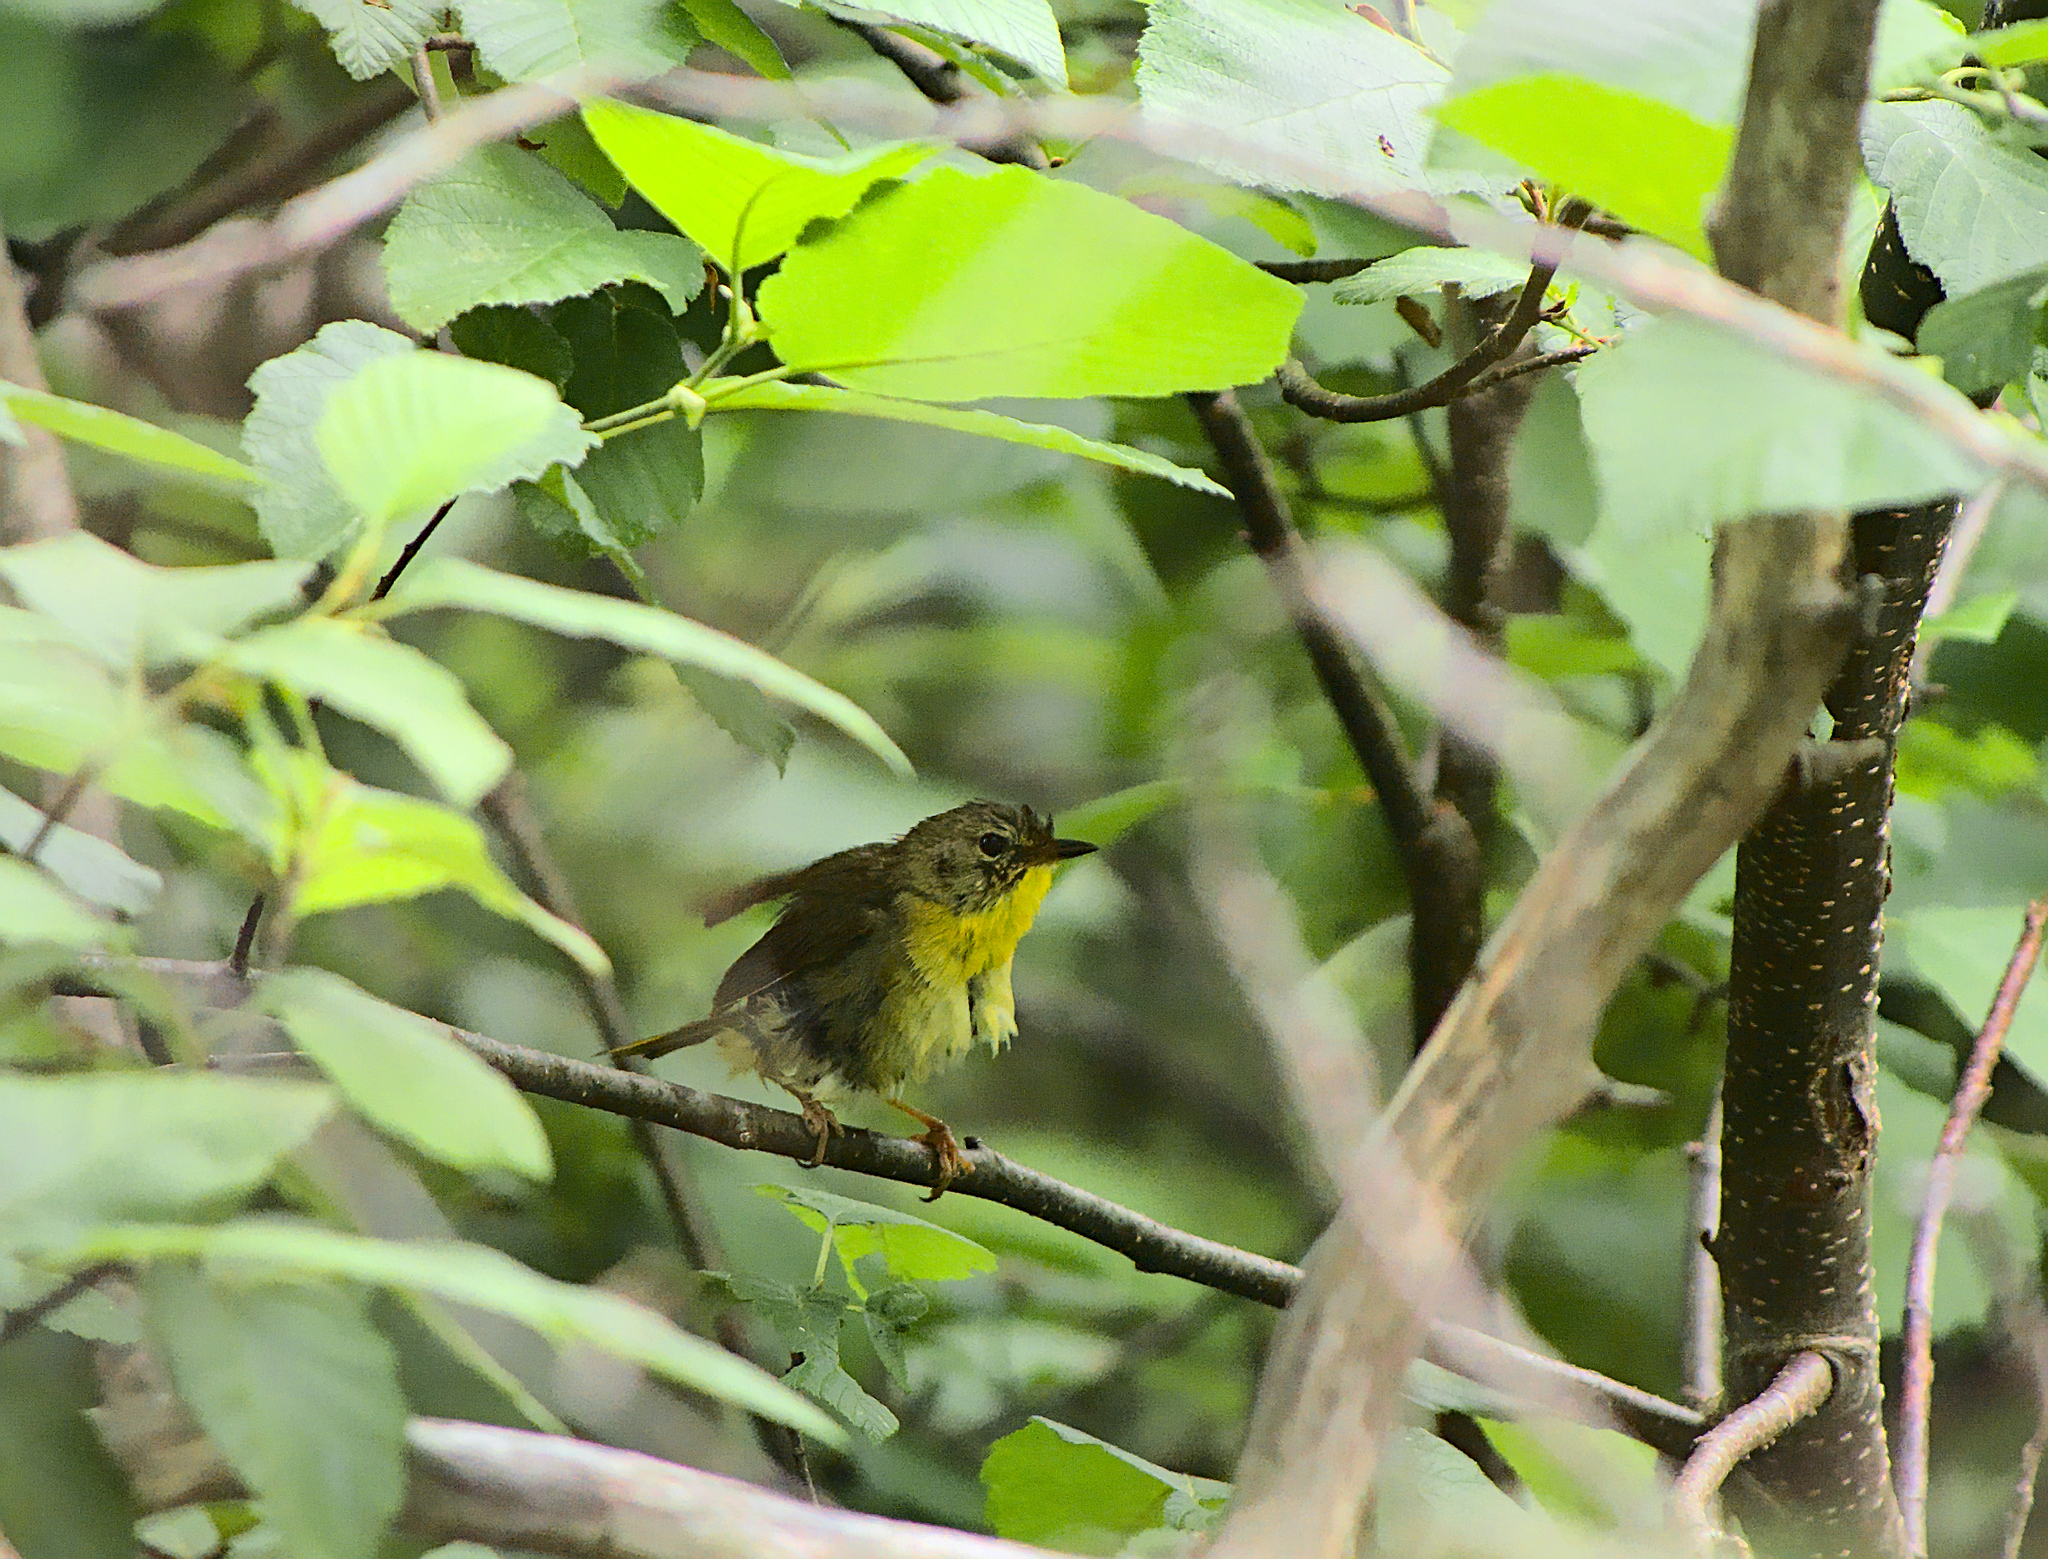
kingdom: Animalia
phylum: Chordata
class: Aves
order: Passeriformes
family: Parulidae
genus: Geothlypis
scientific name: Geothlypis trichas
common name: Common yellowthroat
